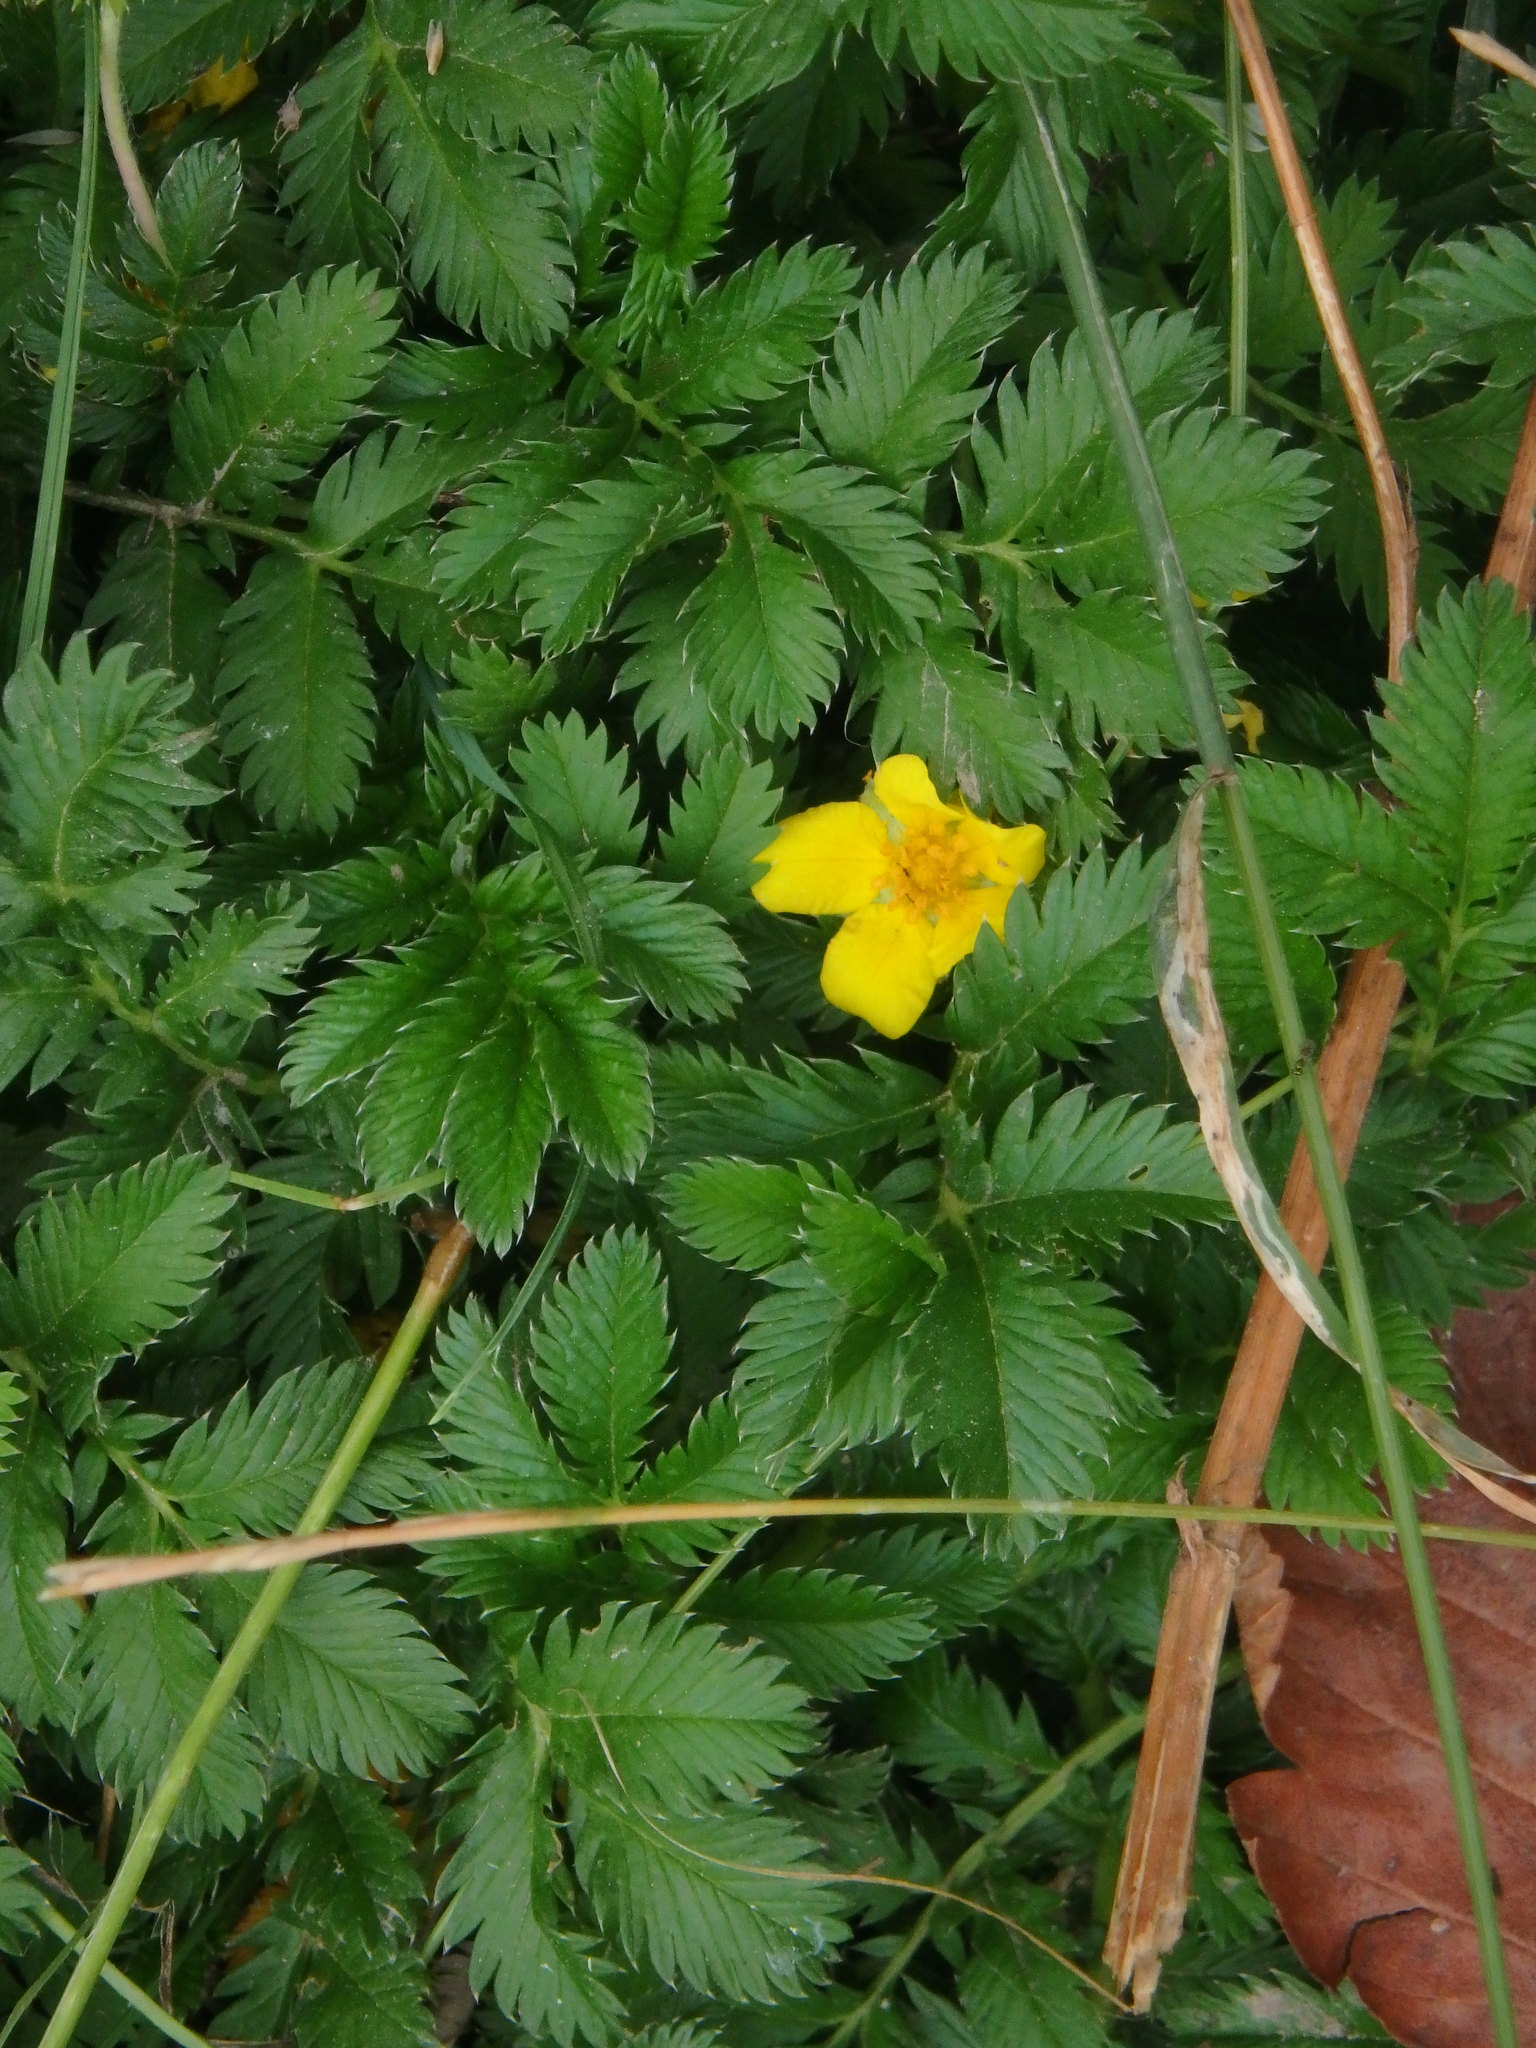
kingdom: Plantae
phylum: Tracheophyta
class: Magnoliopsida
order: Rosales
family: Rosaceae
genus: Argentina
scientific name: Argentina anserina
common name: Common silverweed
